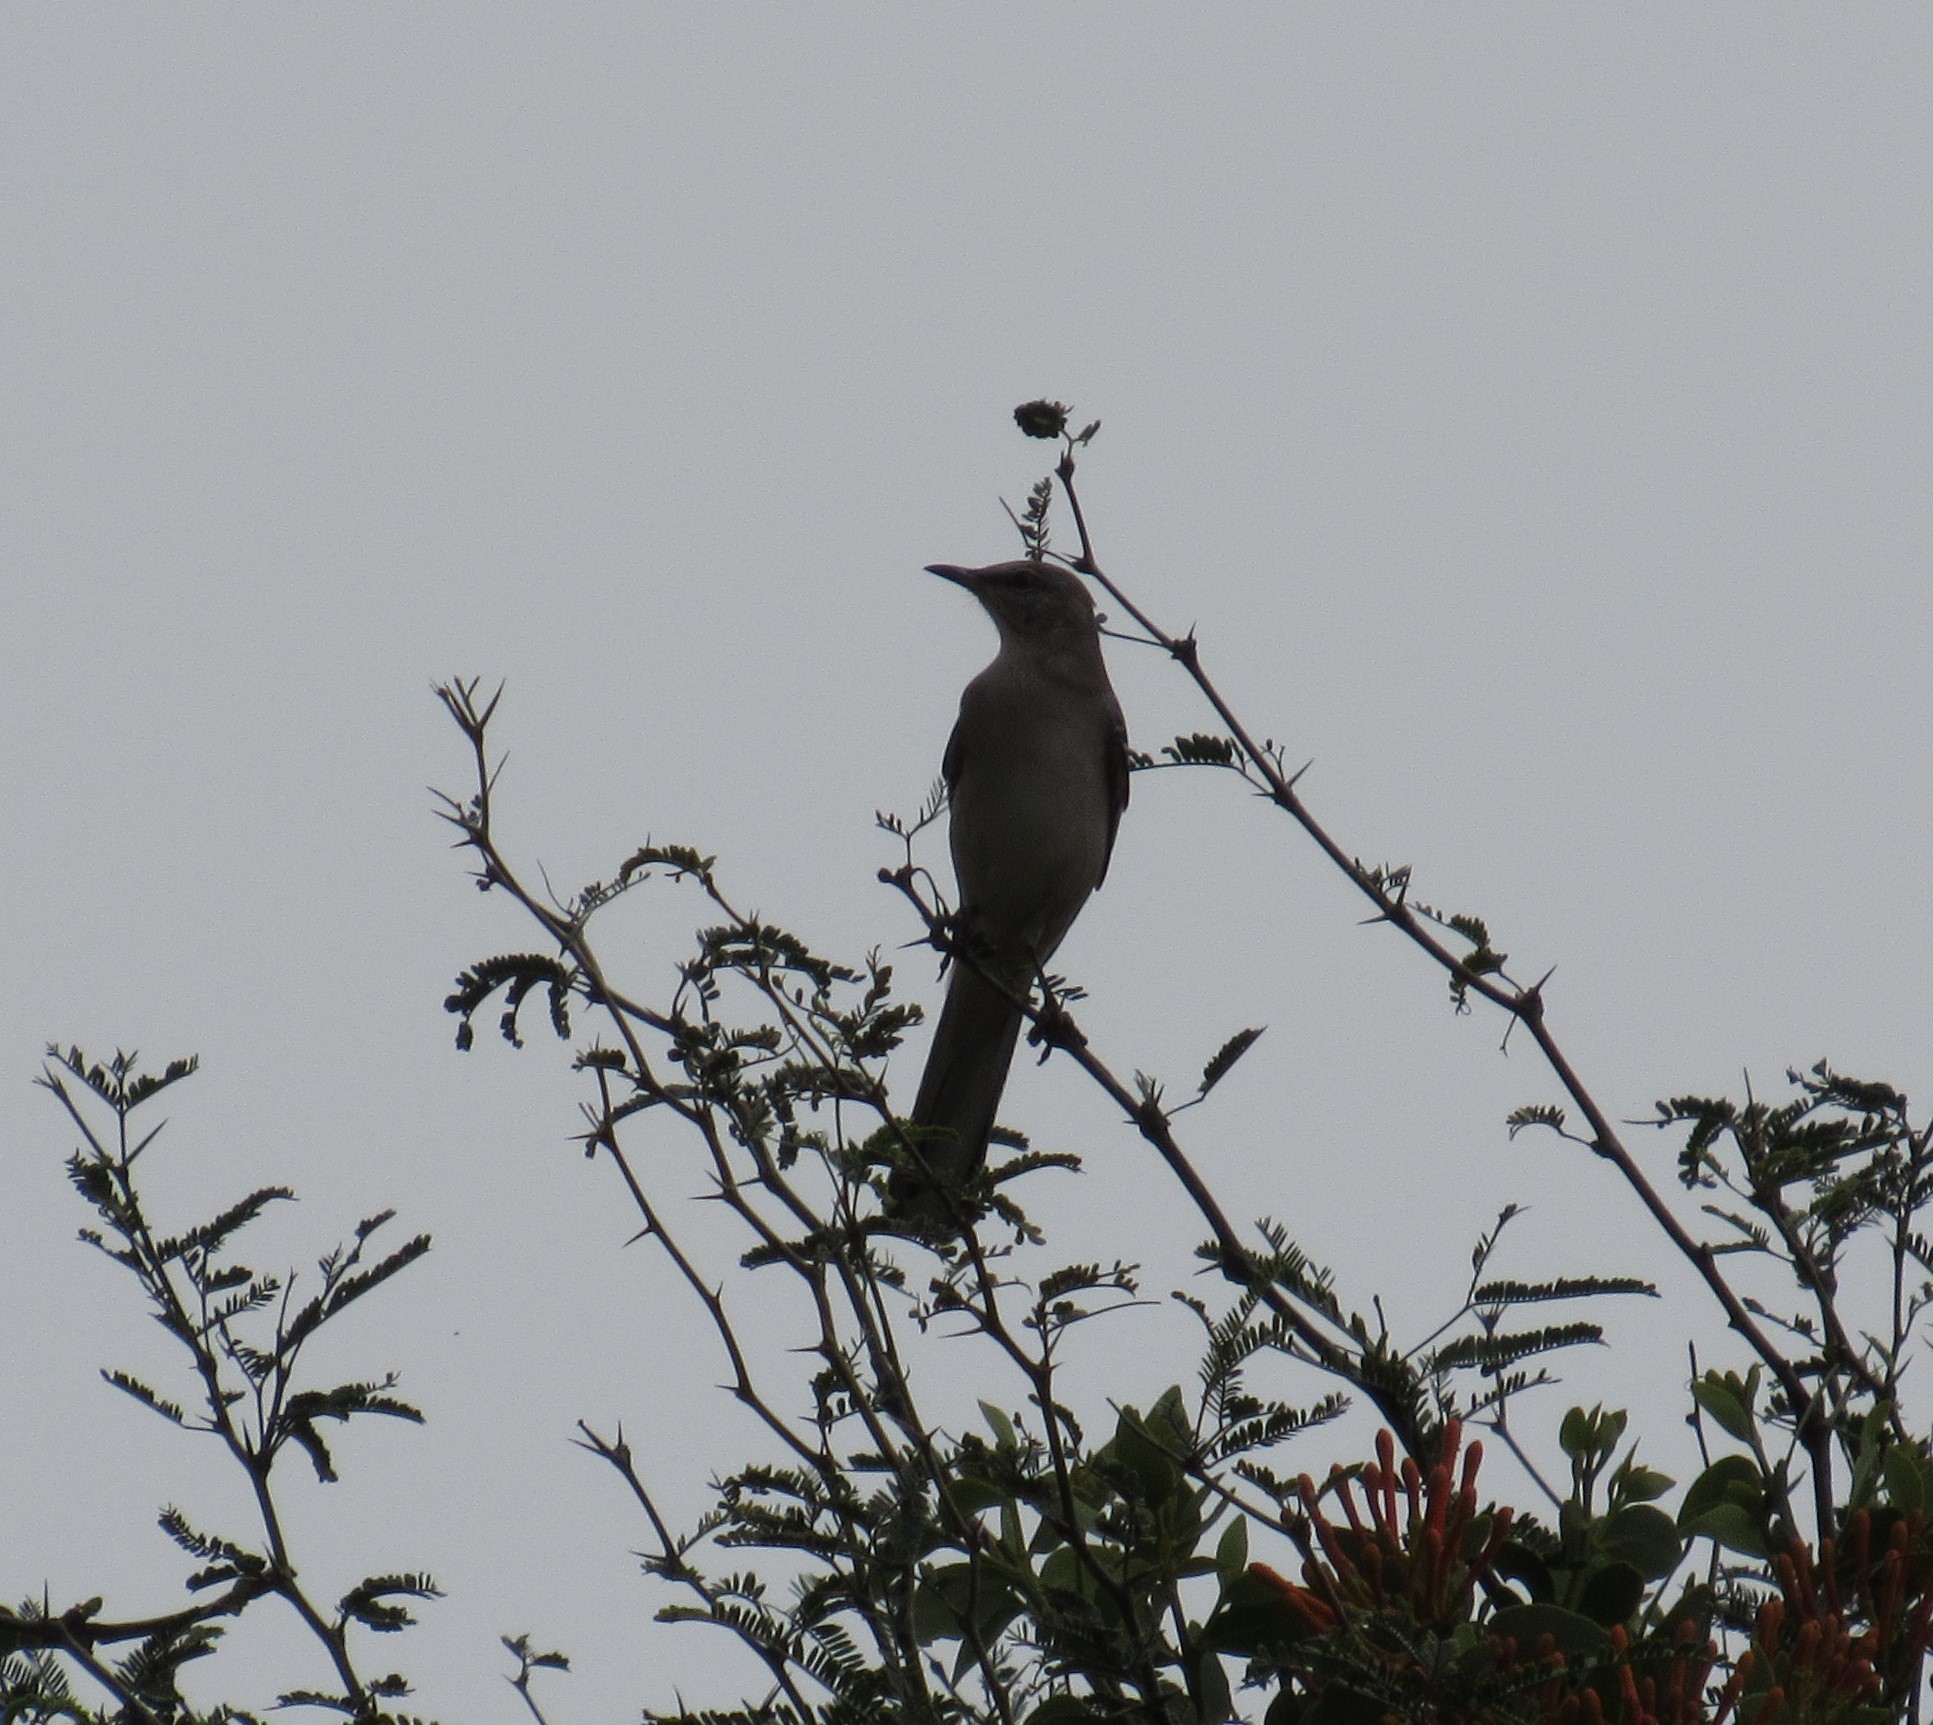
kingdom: Animalia
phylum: Chordata
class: Aves
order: Passeriformes
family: Mimidae
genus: Mimus
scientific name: Mimus polyglottos
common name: Northern mockingbird
